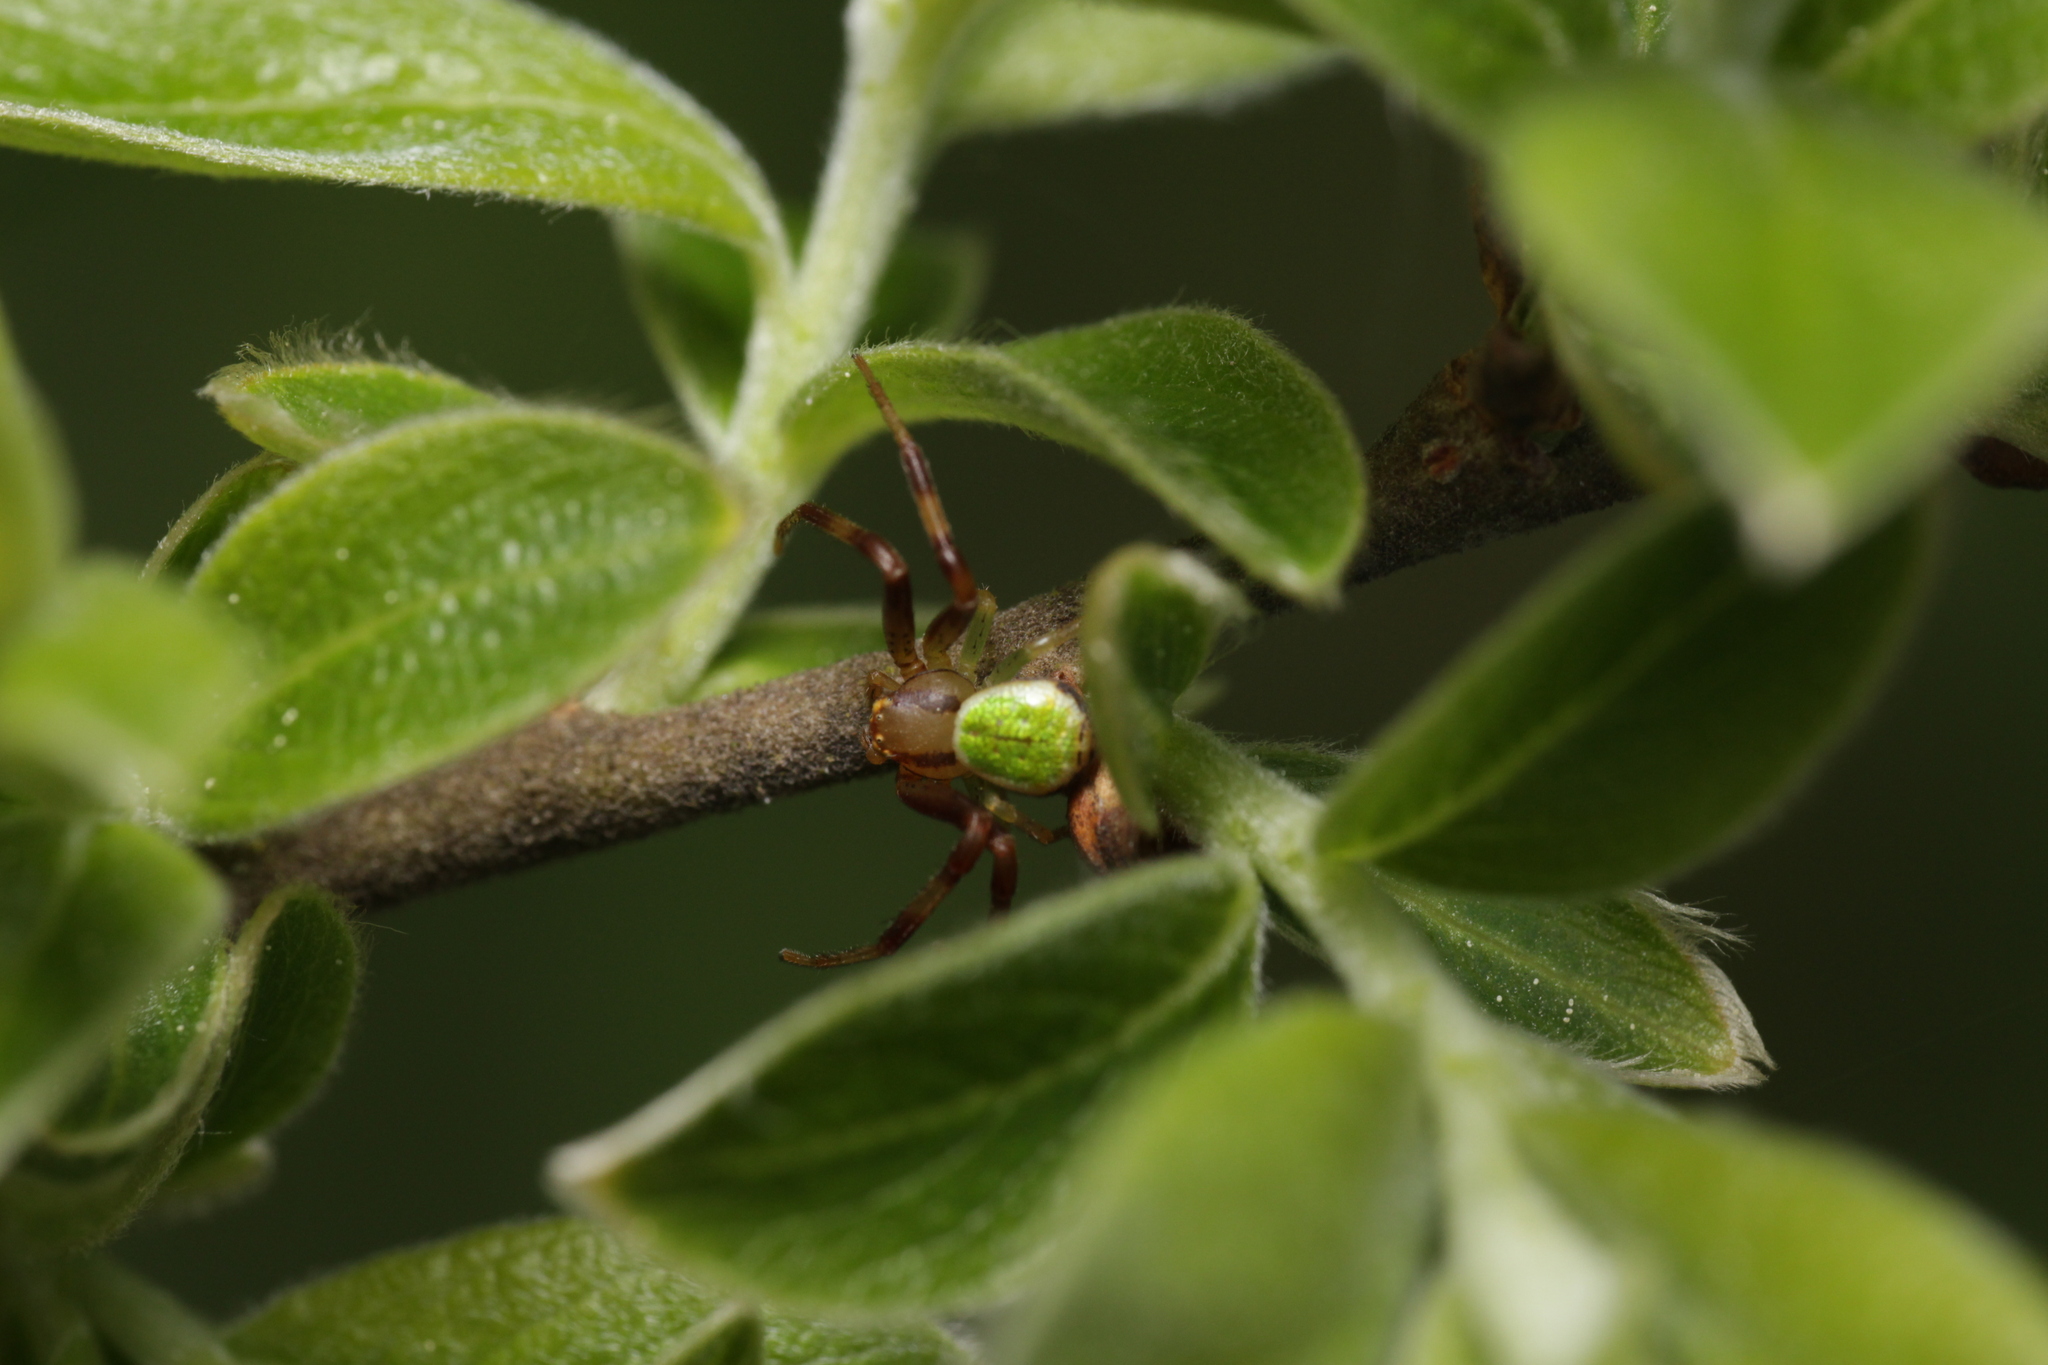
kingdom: Animalia
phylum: Arthropoda
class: Arachnida
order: Araneae
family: Thomisidae
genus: Ebrechtella
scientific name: Ebrechtella tricuspidata
